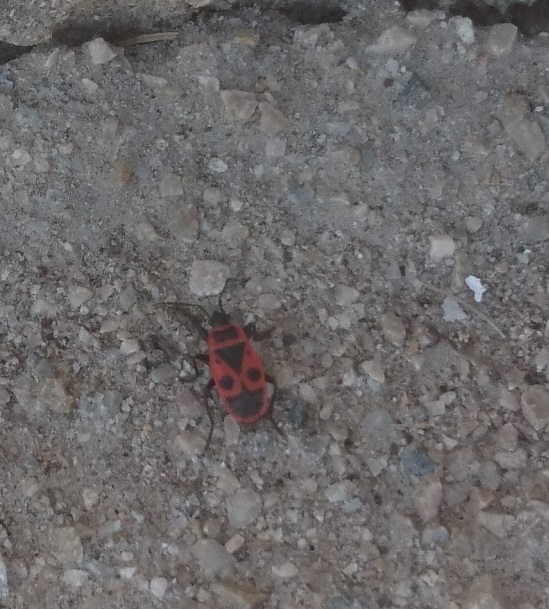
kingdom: Animalia
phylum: Arthropoda
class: Insecta
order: Hemiptera
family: Pyrrhocoridae
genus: Pyrrhocoris
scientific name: Pyrrhocoris apterus
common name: Firebug
